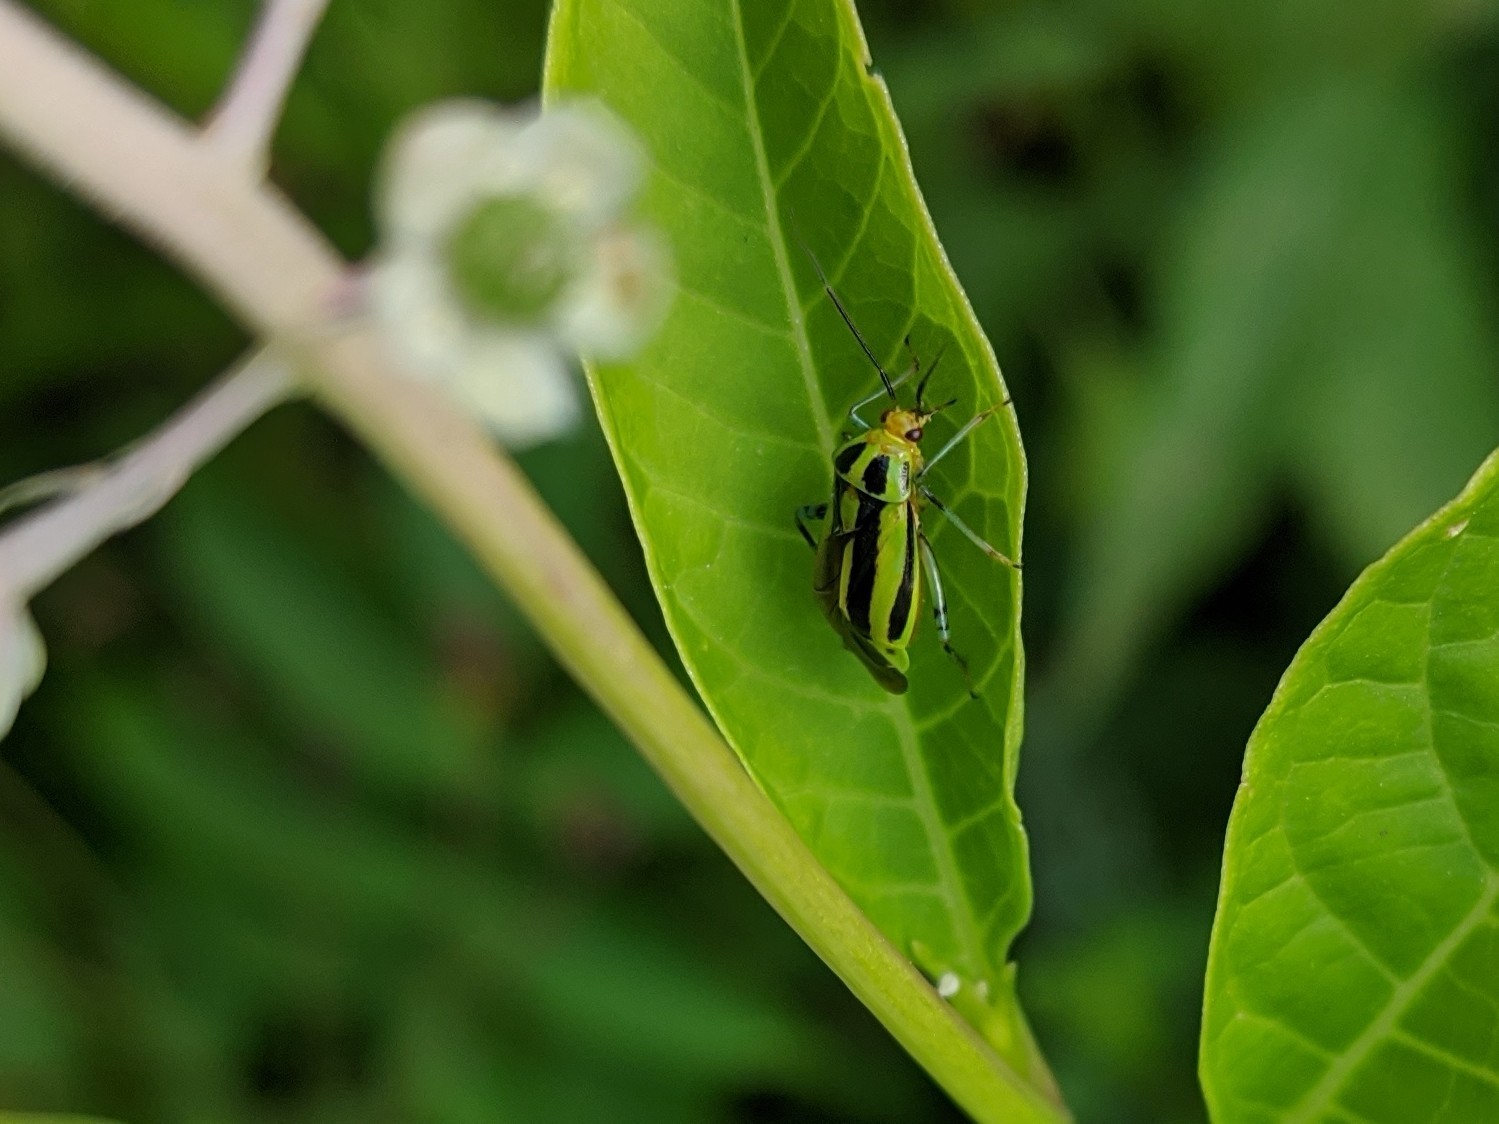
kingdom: Animalia
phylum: Arthropoda
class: Insecta
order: Hemiptera
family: Miridae
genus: Poecilocapsus
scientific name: Poecilocapsus lineatus
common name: Four-lined plant bug
